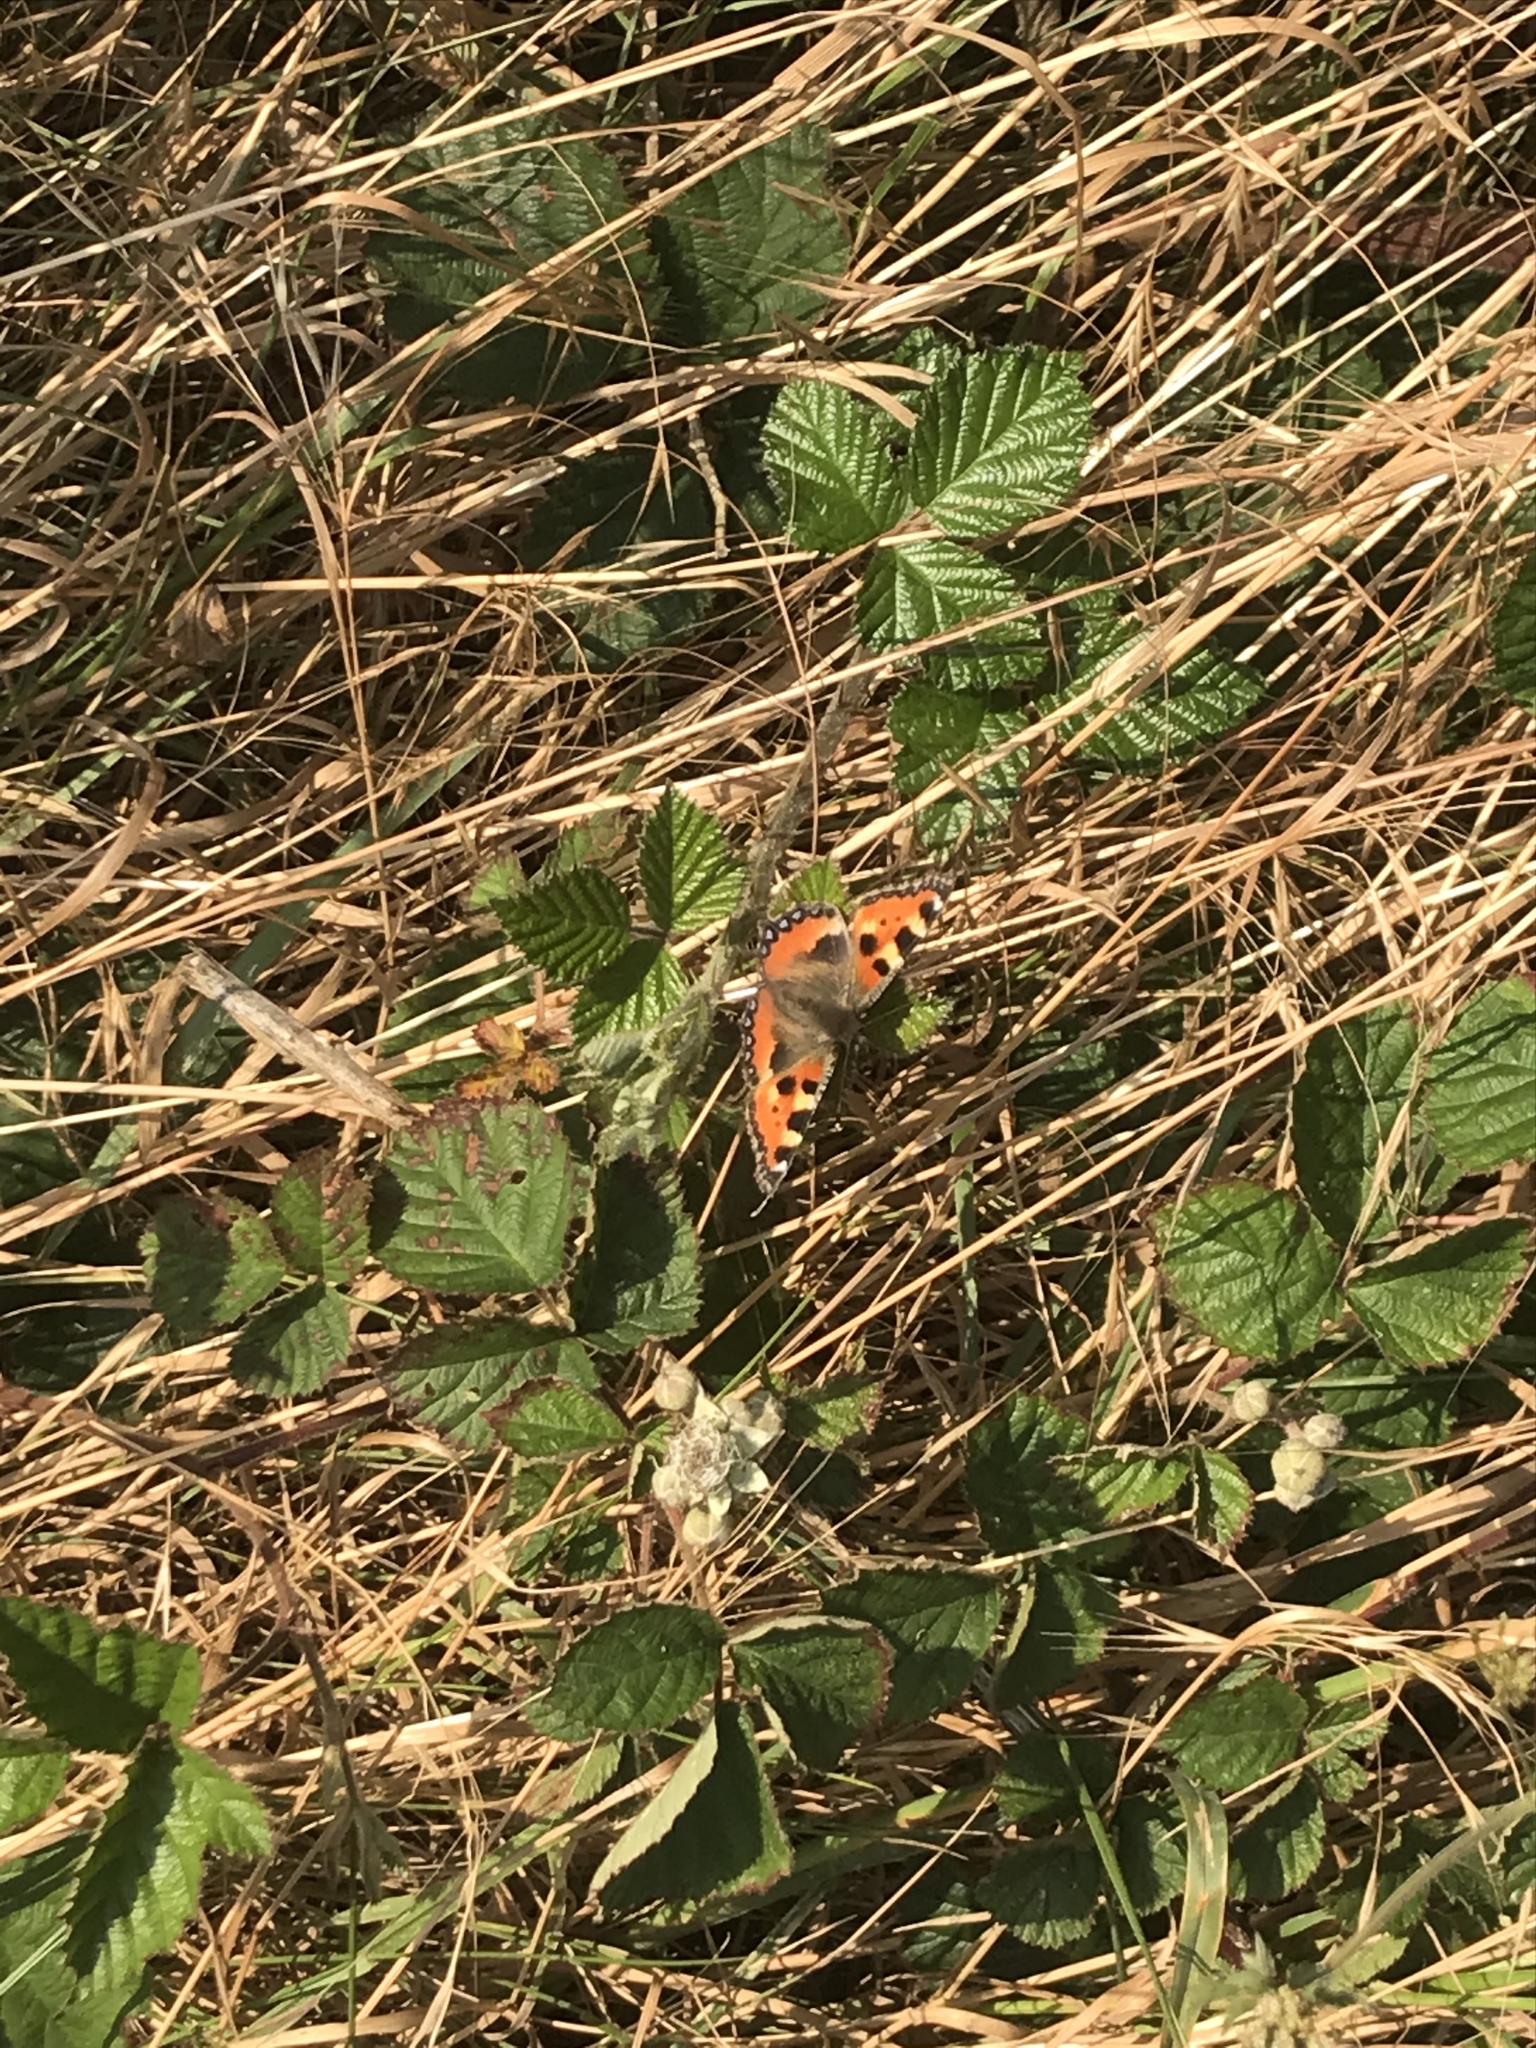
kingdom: Animalia
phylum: Arthropoda
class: Insecta
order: Lepidoptera
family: Nymphalidae
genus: Aglais
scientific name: Aglais urticae
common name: Small tortoiseshell
